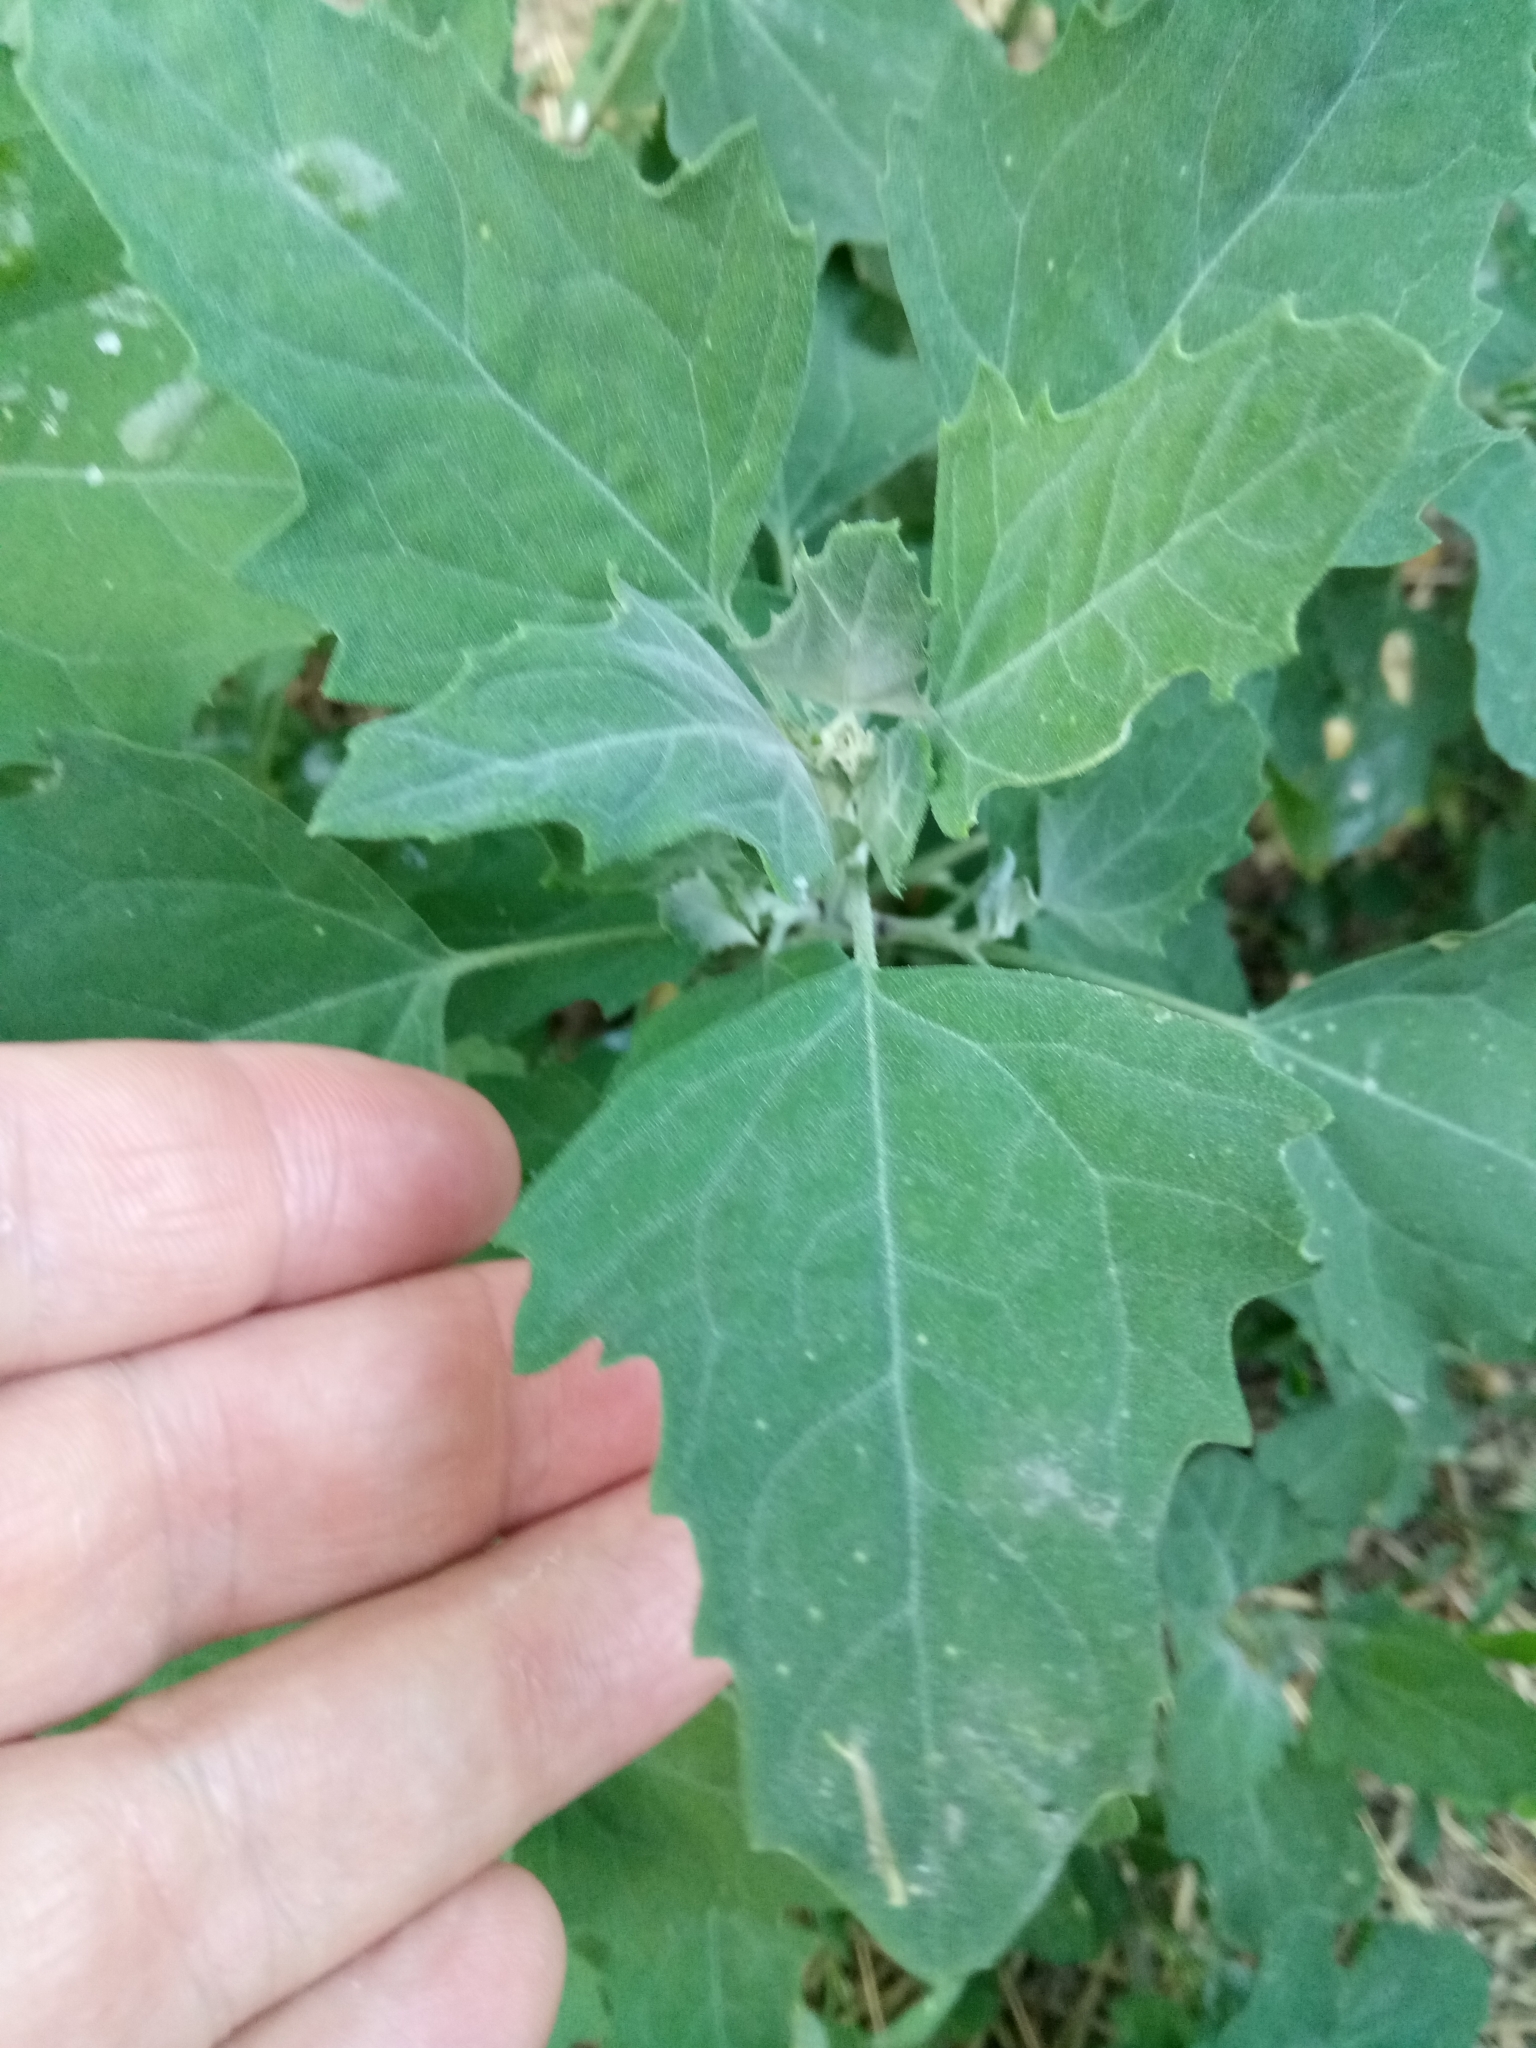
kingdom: Plantae
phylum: Tracheophyta
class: Magnoliopsida
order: Caryophyllales
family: Amaranthaceae
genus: Chenopodium
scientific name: Chenopodium album
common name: Fat-hen
